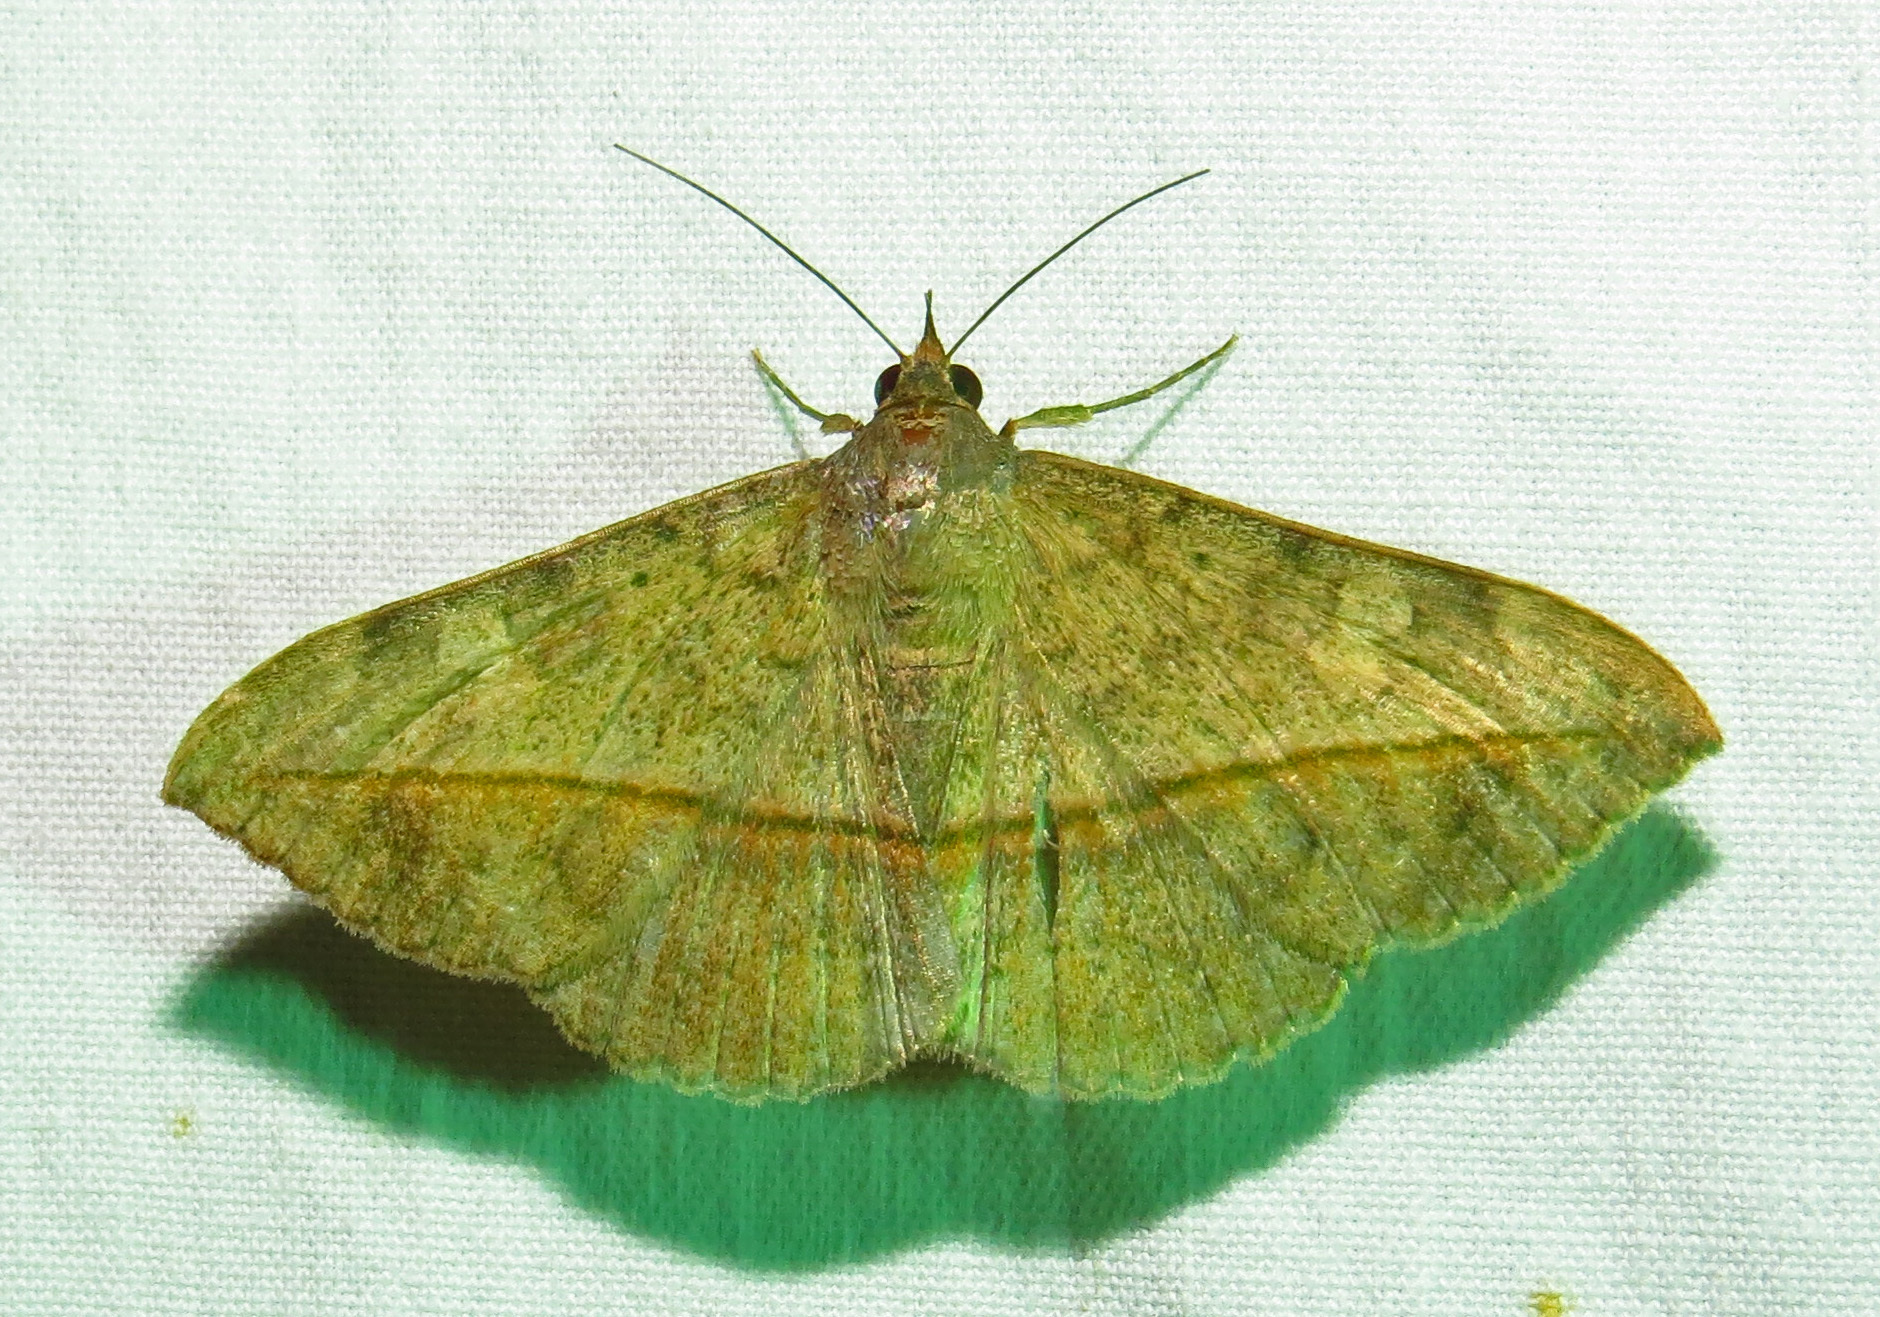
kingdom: Animalia
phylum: Arthropoda
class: Insecta
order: Lepidoptera
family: Erebidae
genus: Anticarsia
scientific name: Anticarsia gemmatalis
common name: Cutworm moth
